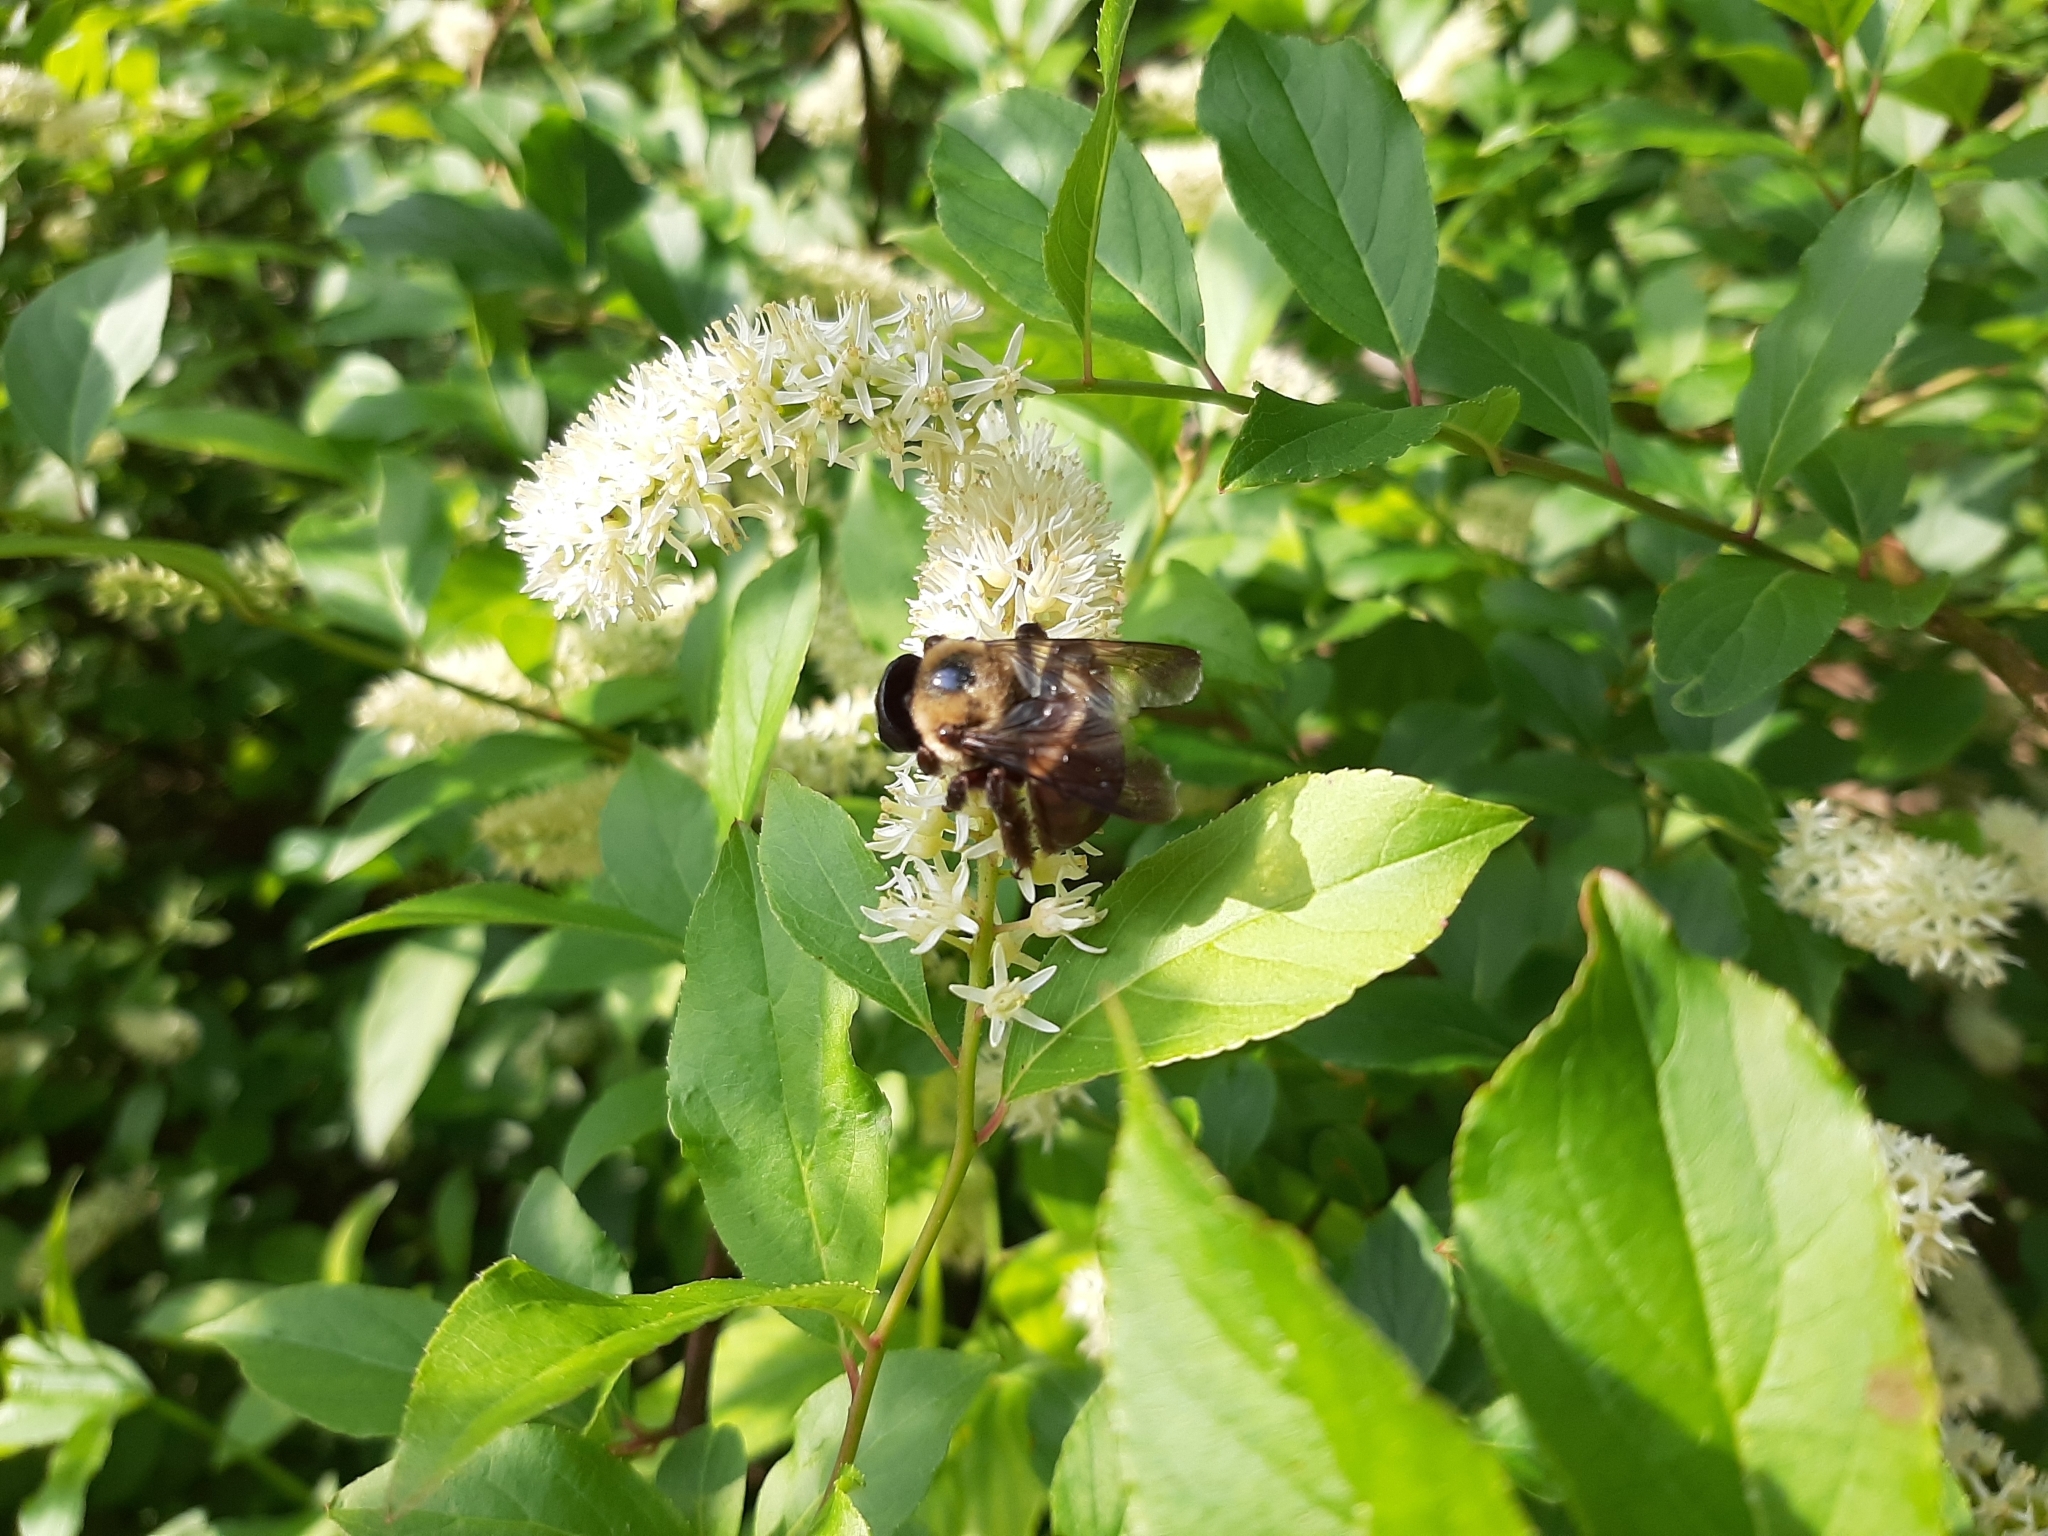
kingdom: Animalia
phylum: Arthropoda
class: Insecta
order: Hymenoptera
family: Apidae
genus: Xylocopa
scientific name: Xylocopa virginica
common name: Carpenter bee
